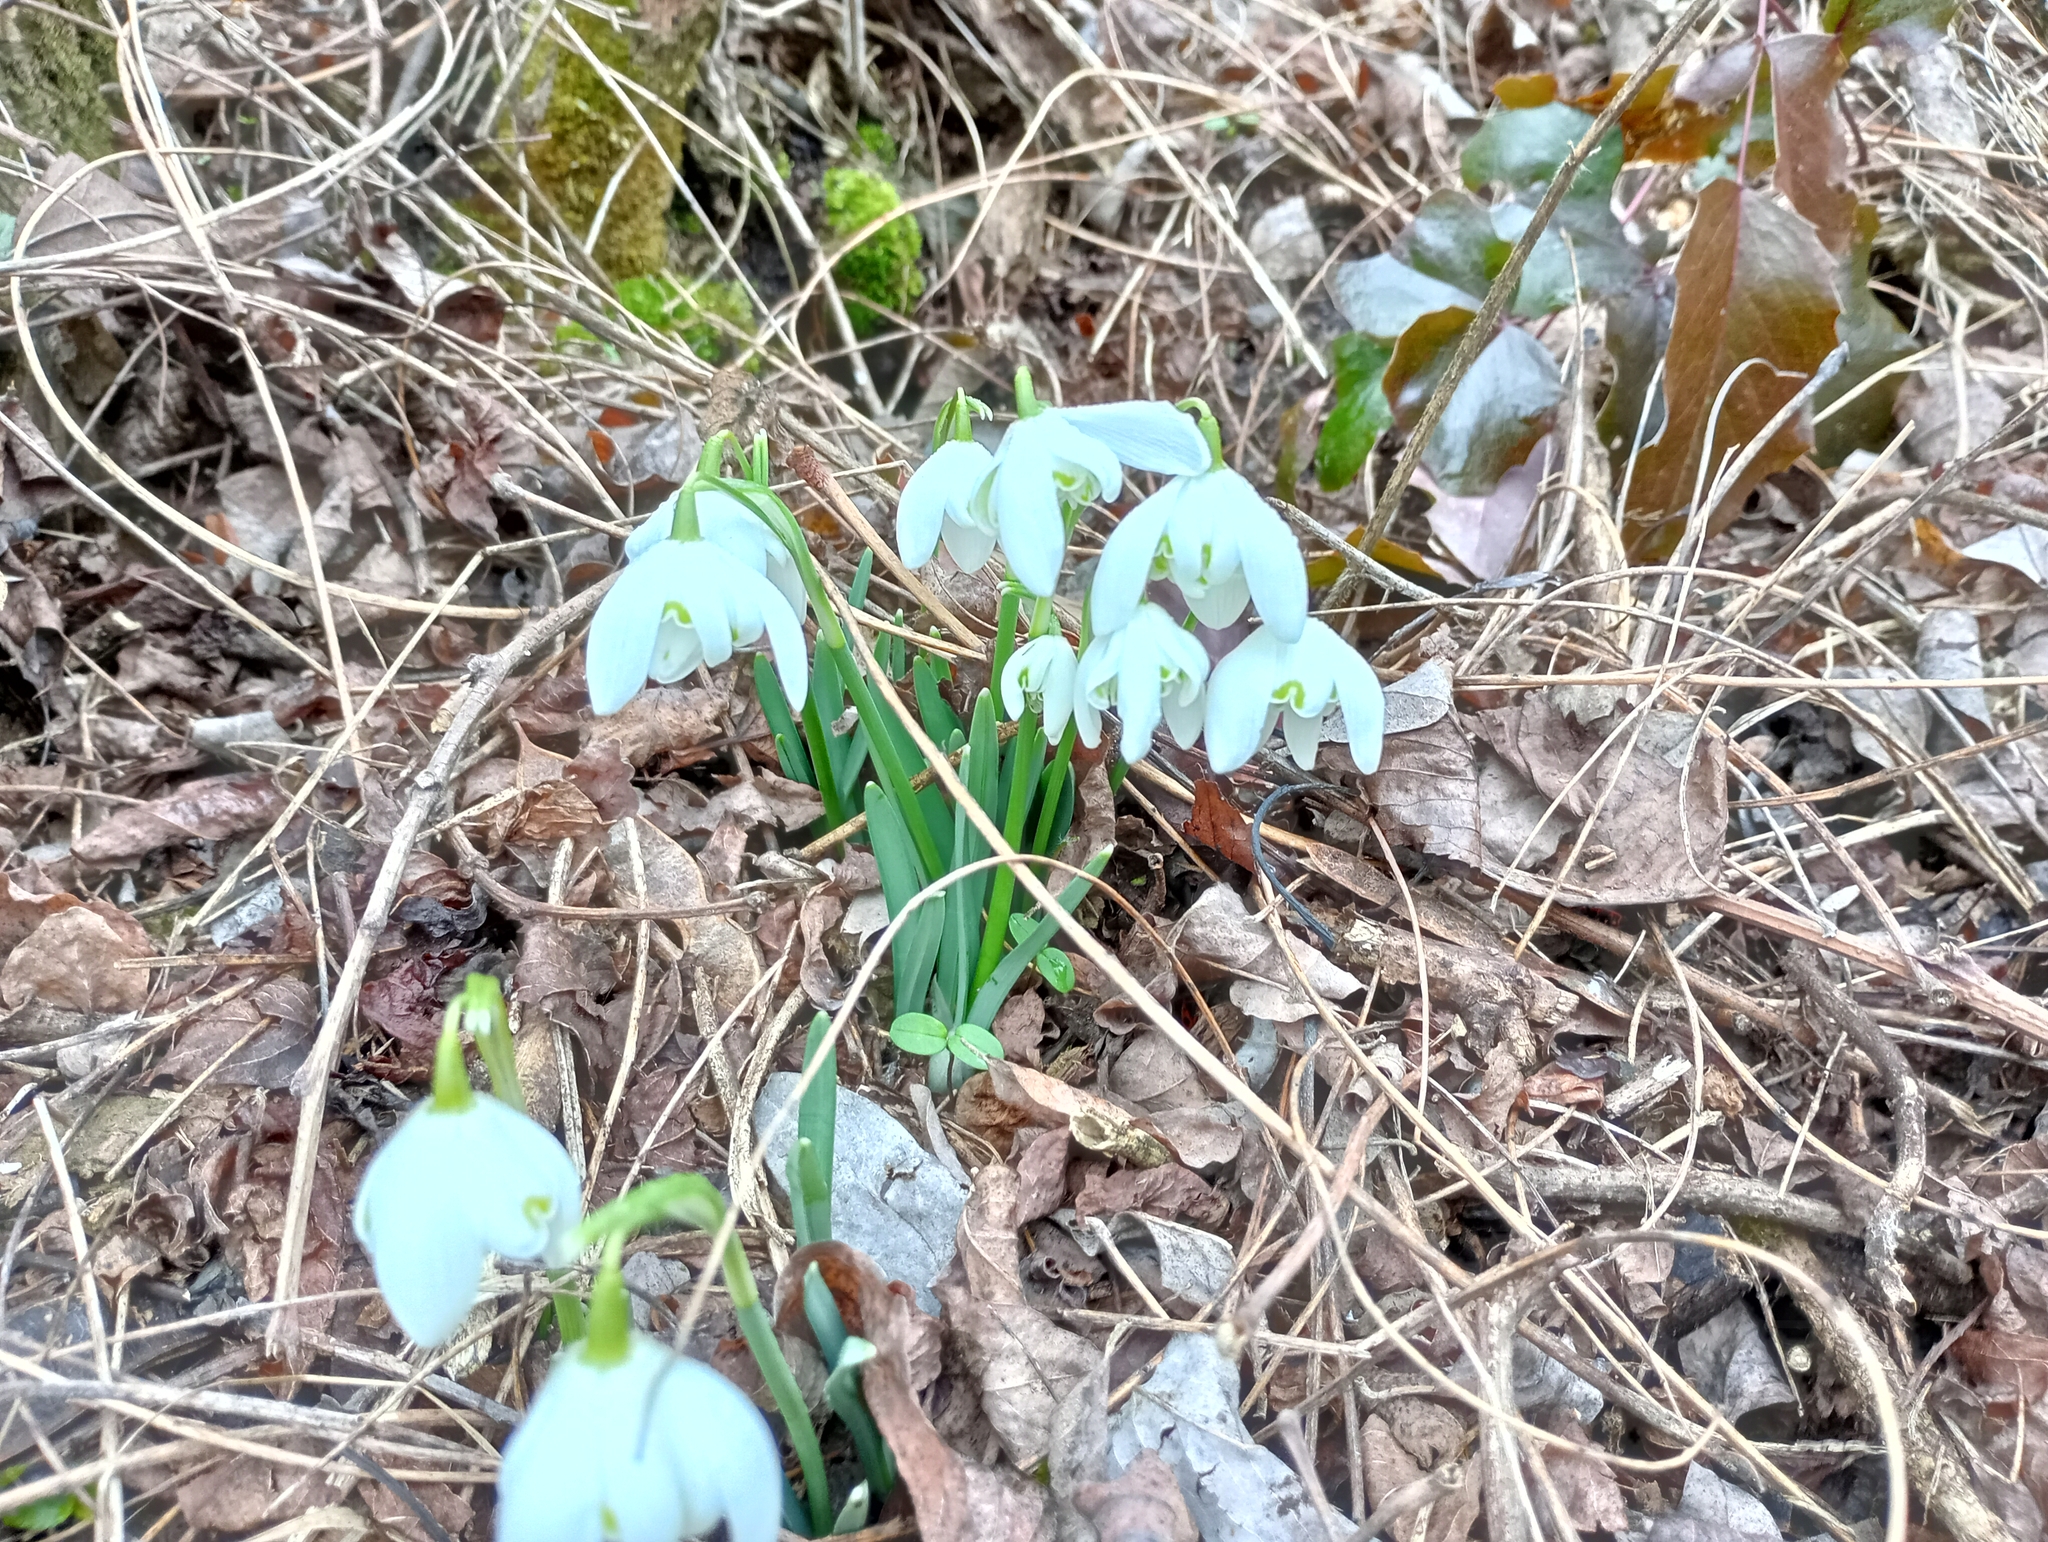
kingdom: Plantae
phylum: Tracheophyta
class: Liliopsida
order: Asparagales
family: Amaryllidaceae
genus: Galanthus
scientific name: Galanthus nivalis
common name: Snowdrop
